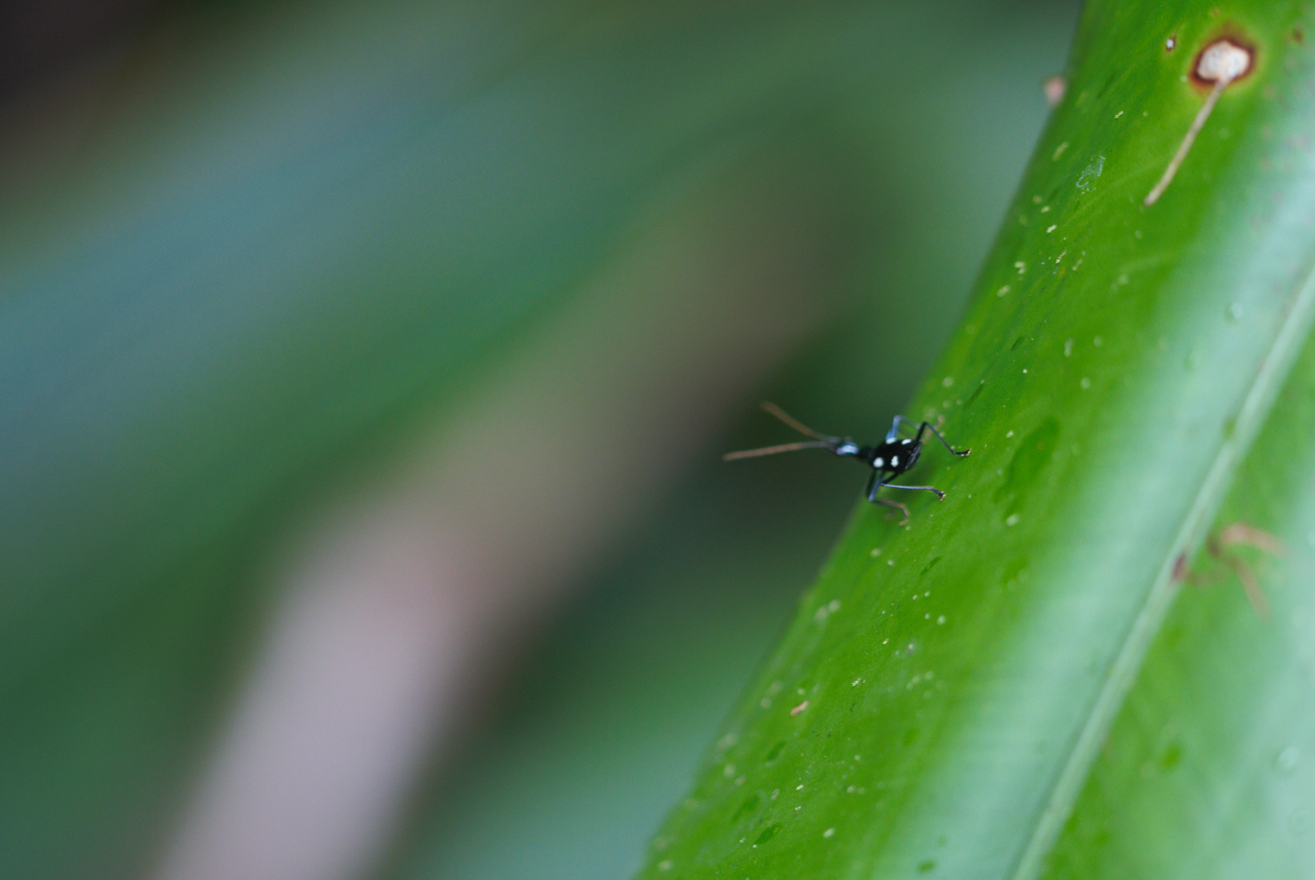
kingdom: Animalia
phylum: Arthropoda
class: Insecta
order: Coleoptera
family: Carabidae
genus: Calophaena
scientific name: Calophaena acuminata
